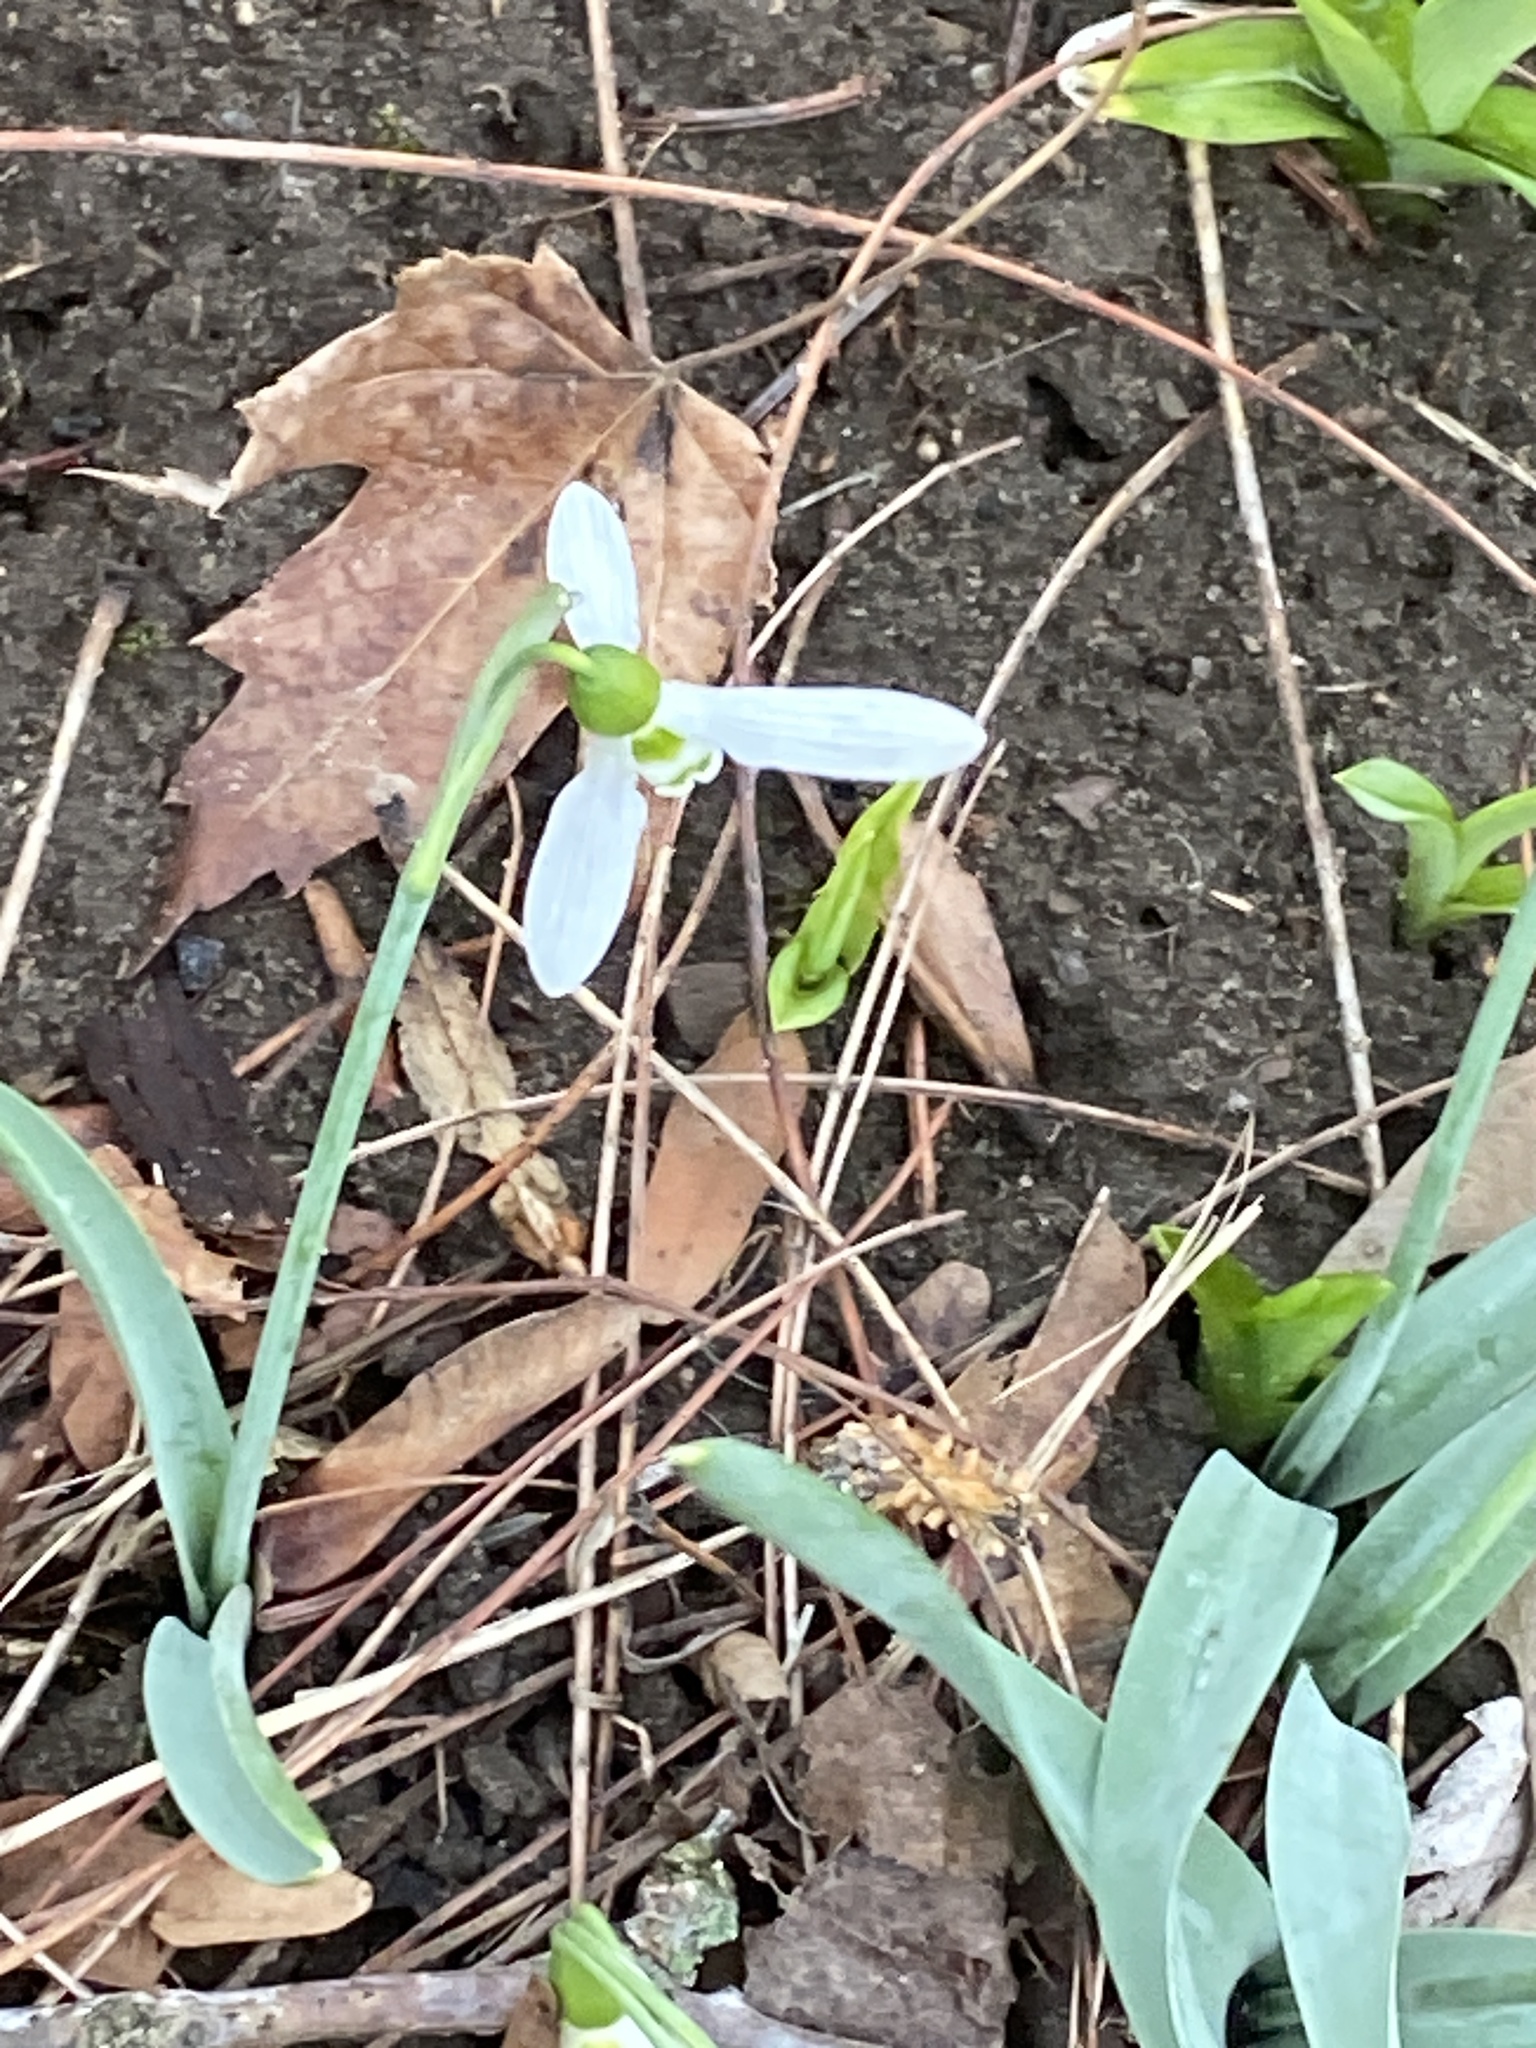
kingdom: Plantae
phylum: Tracheophyta
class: Liliopsida
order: Asparagales
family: Amaryllidaceae
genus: Galanthus
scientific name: Galanthus elwesii
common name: Greater snowdrop
